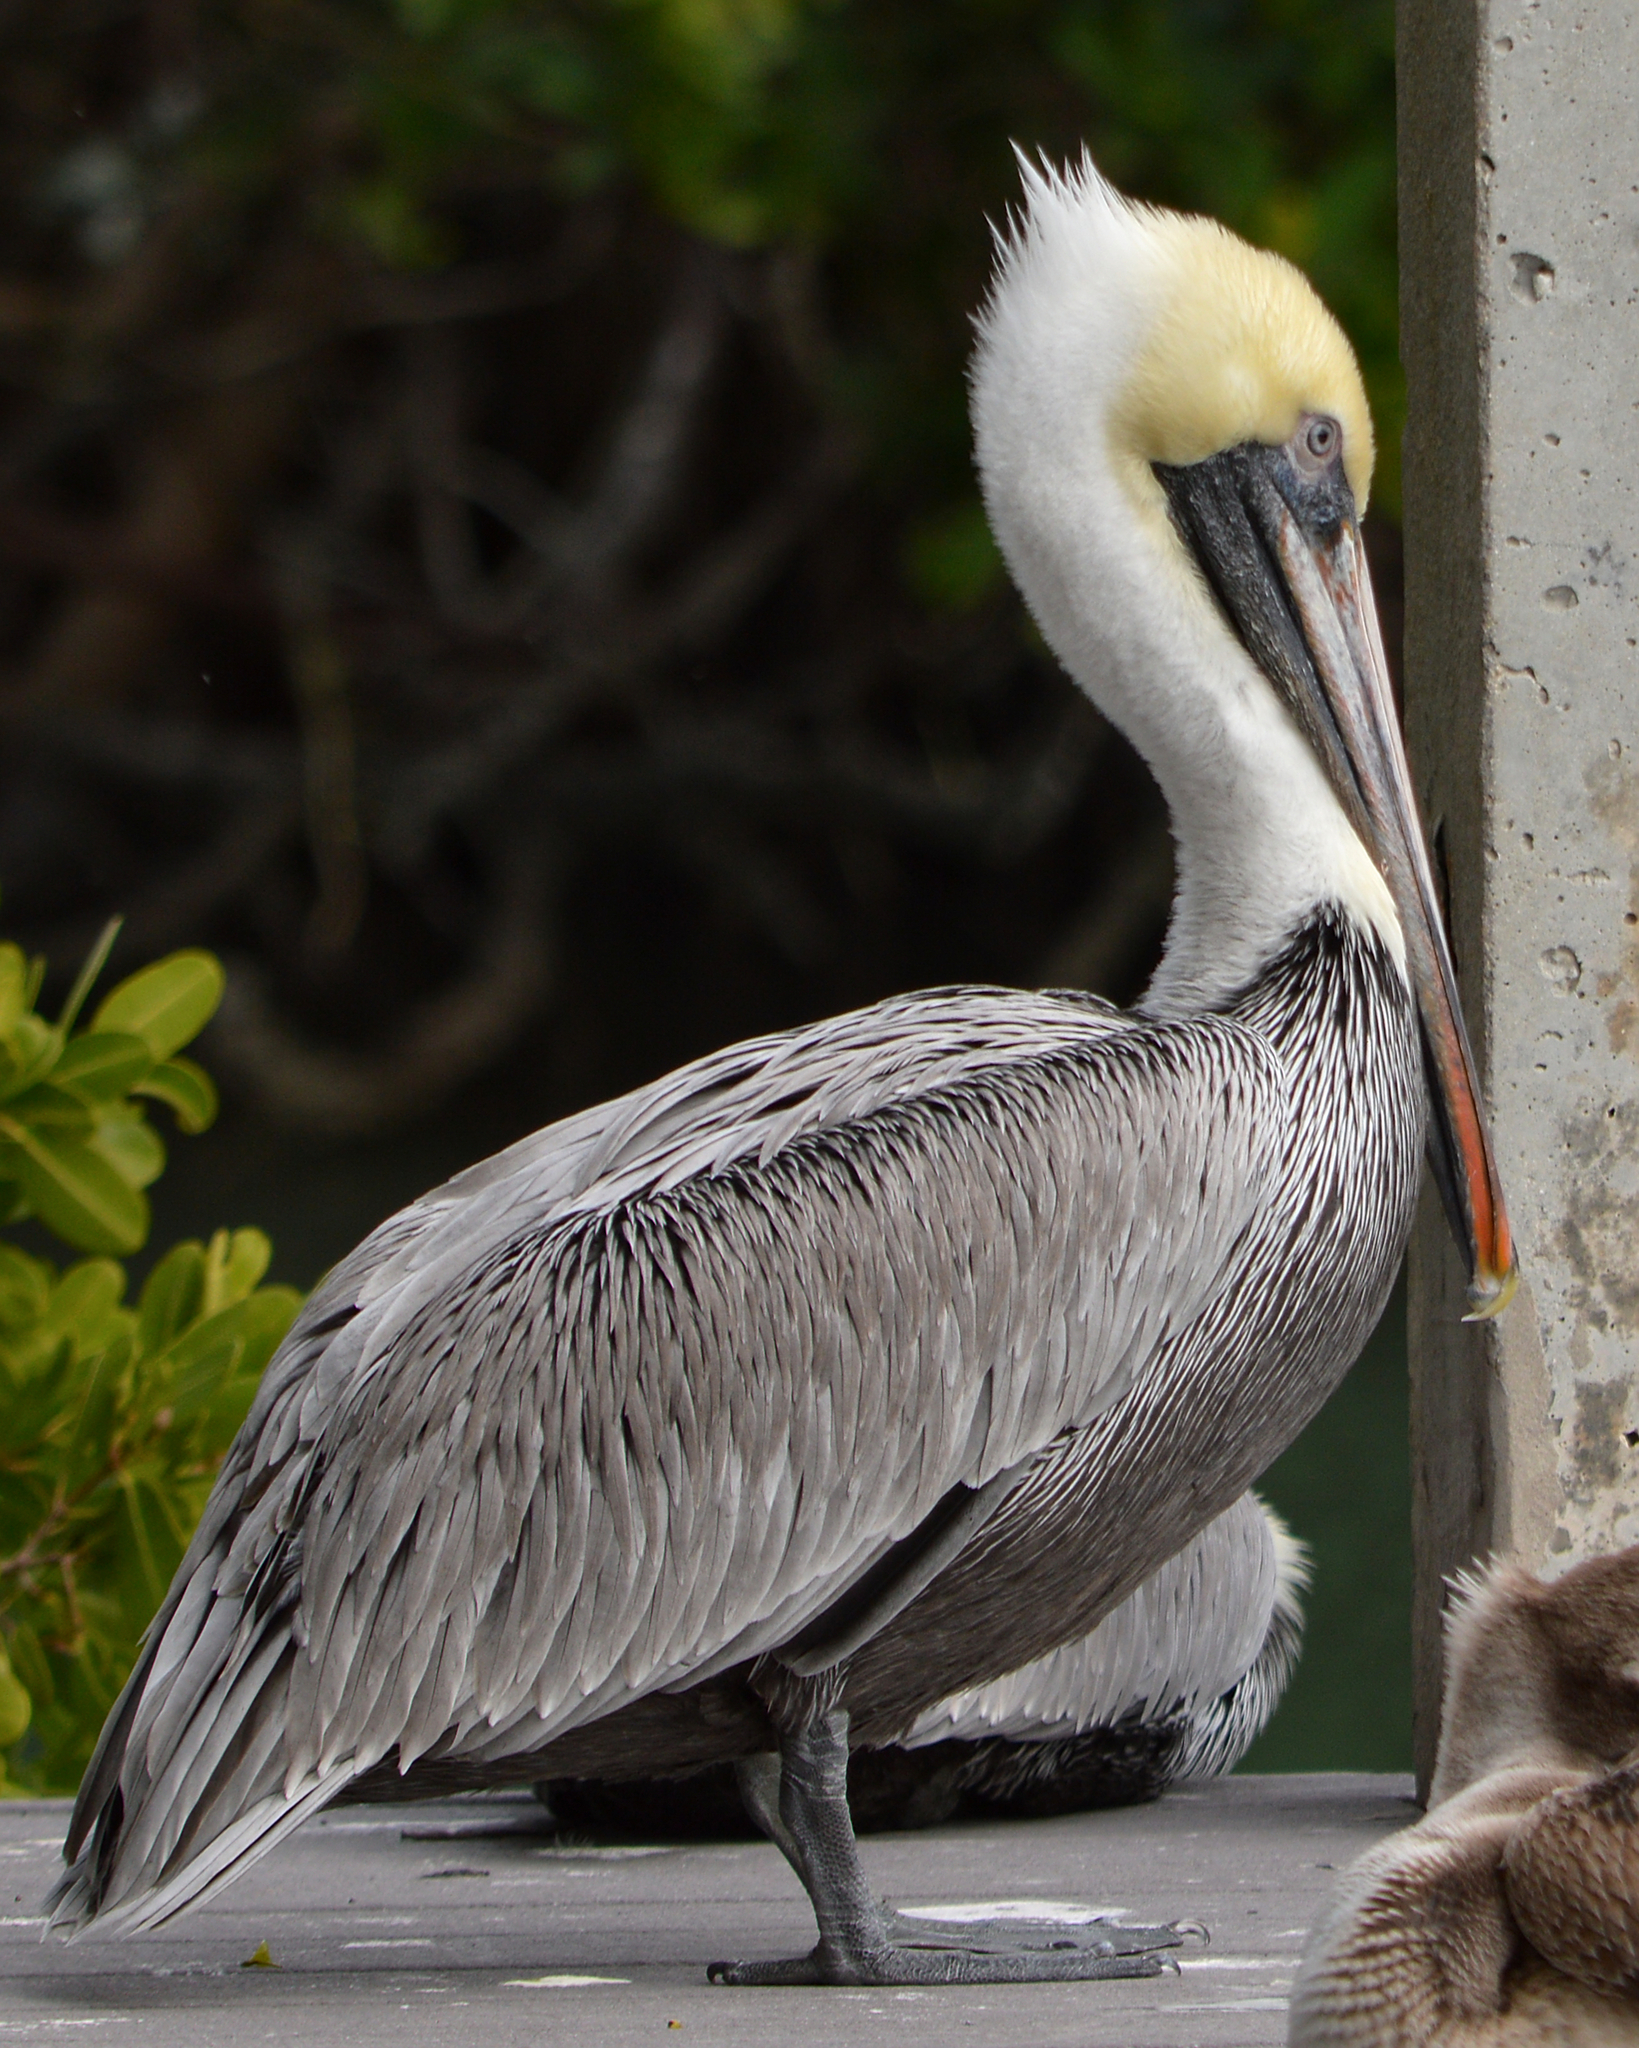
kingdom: Animalia
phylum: Chordata
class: Aves
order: Pelecaniformes
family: Pelecanidae
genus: Pelecanus
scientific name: Pelecanus occidentalis
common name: Brown pelican
